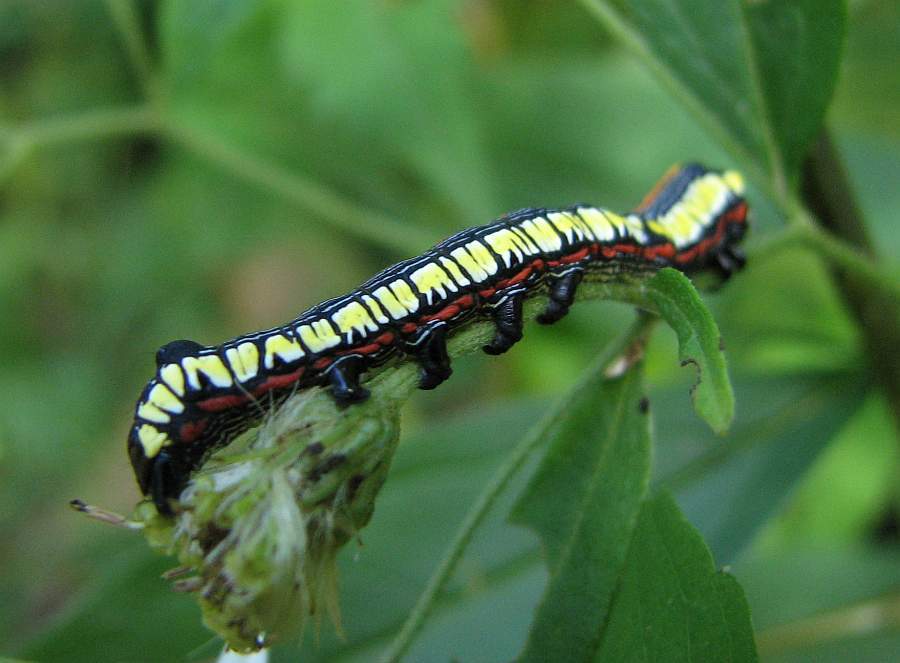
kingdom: Animalia
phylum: Arthropoda
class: Insecta
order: Lepidoptera
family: Noctuidae
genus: Cucullia
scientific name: Cucullia convexipennis
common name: Brown-hooded owlet
